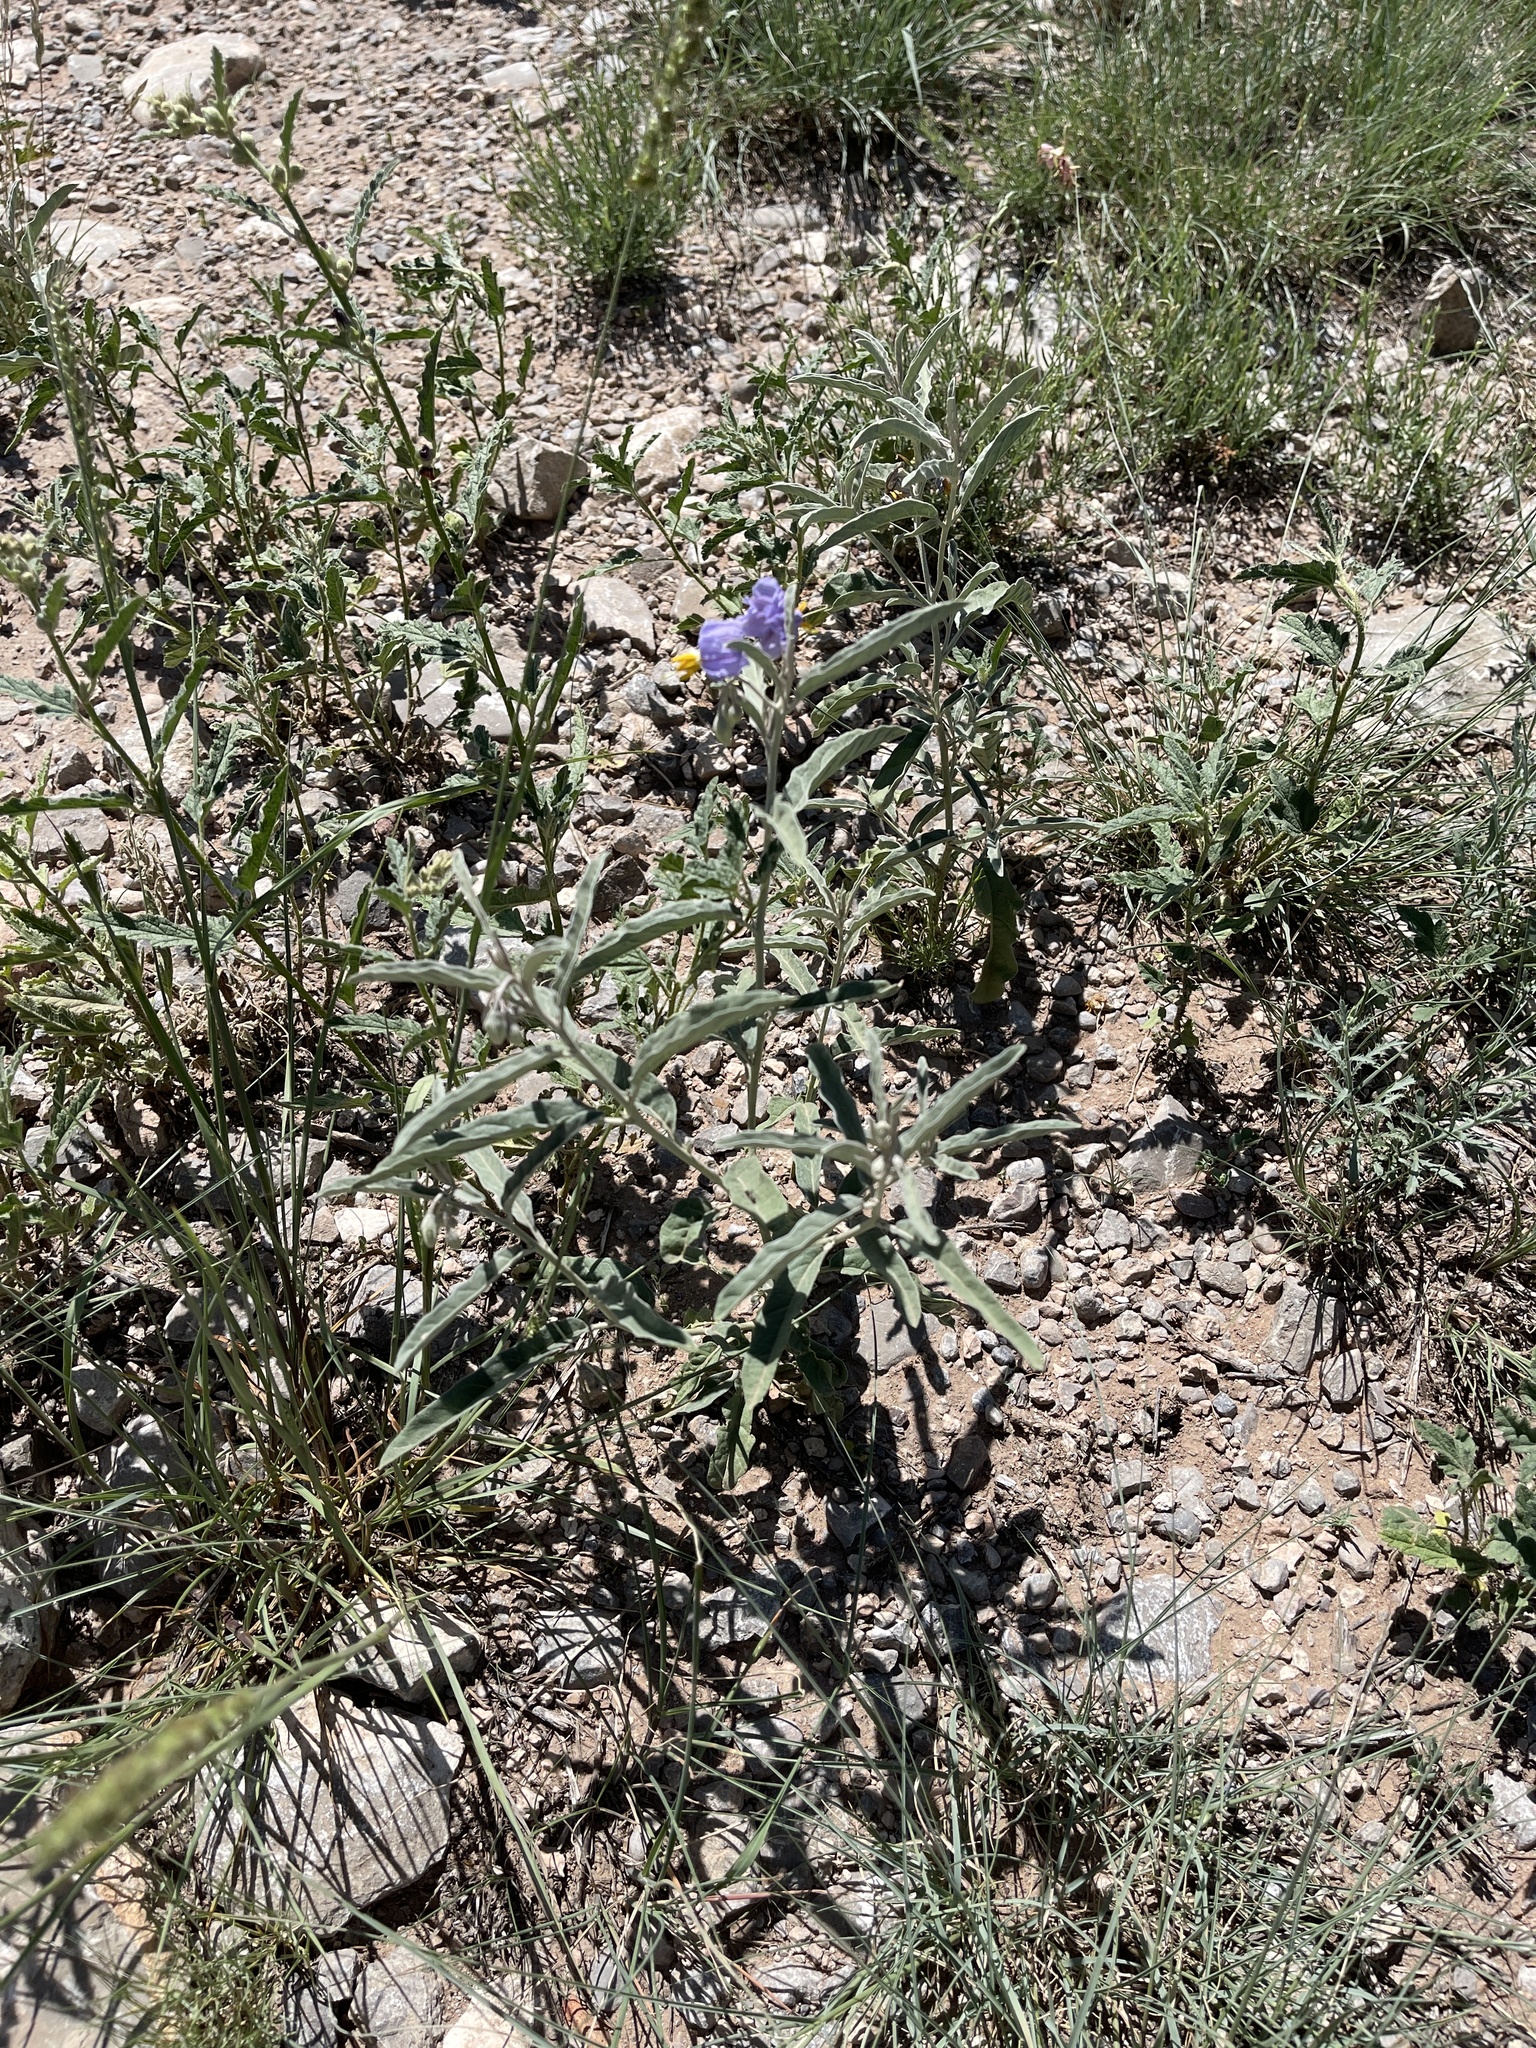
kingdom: Plantae
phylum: Tracheophyta
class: Magnoliopsida
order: Solanales
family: Solanaceae
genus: Solanum
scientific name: Solanum elaeagnifolium
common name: Silverleaf nightshade
